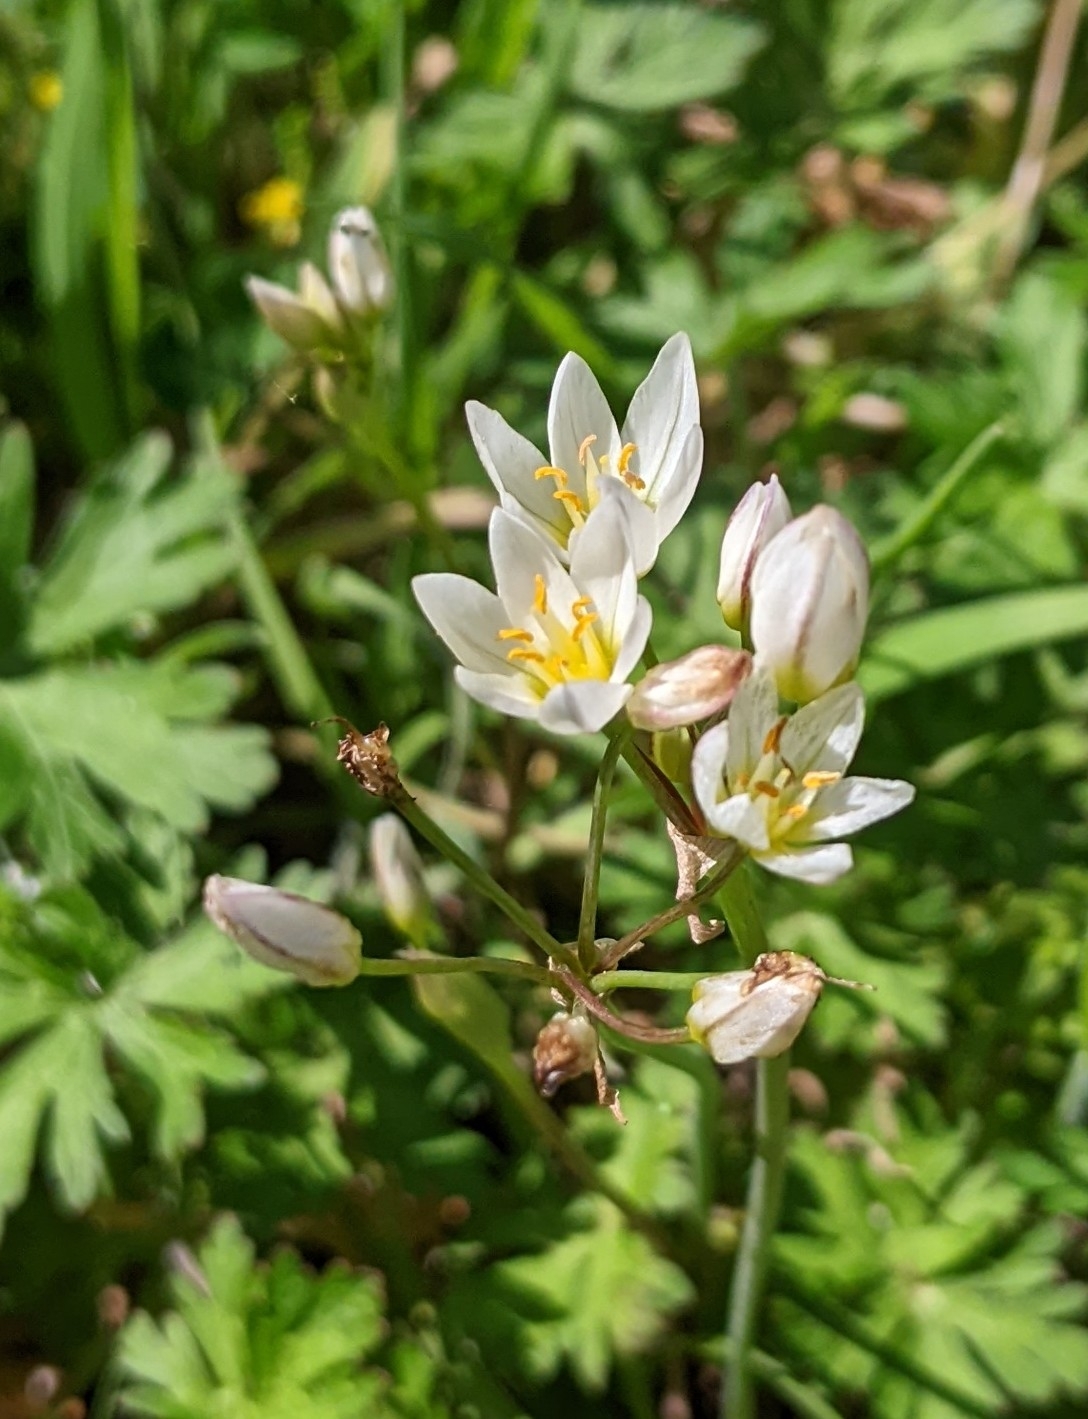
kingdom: Plantae
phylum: Tracheophyta
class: Liliopsida
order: Asparagales
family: Amaryllidaceae
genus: Nothoscordum
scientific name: Nothoscordum bivalve
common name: Crow-poison
